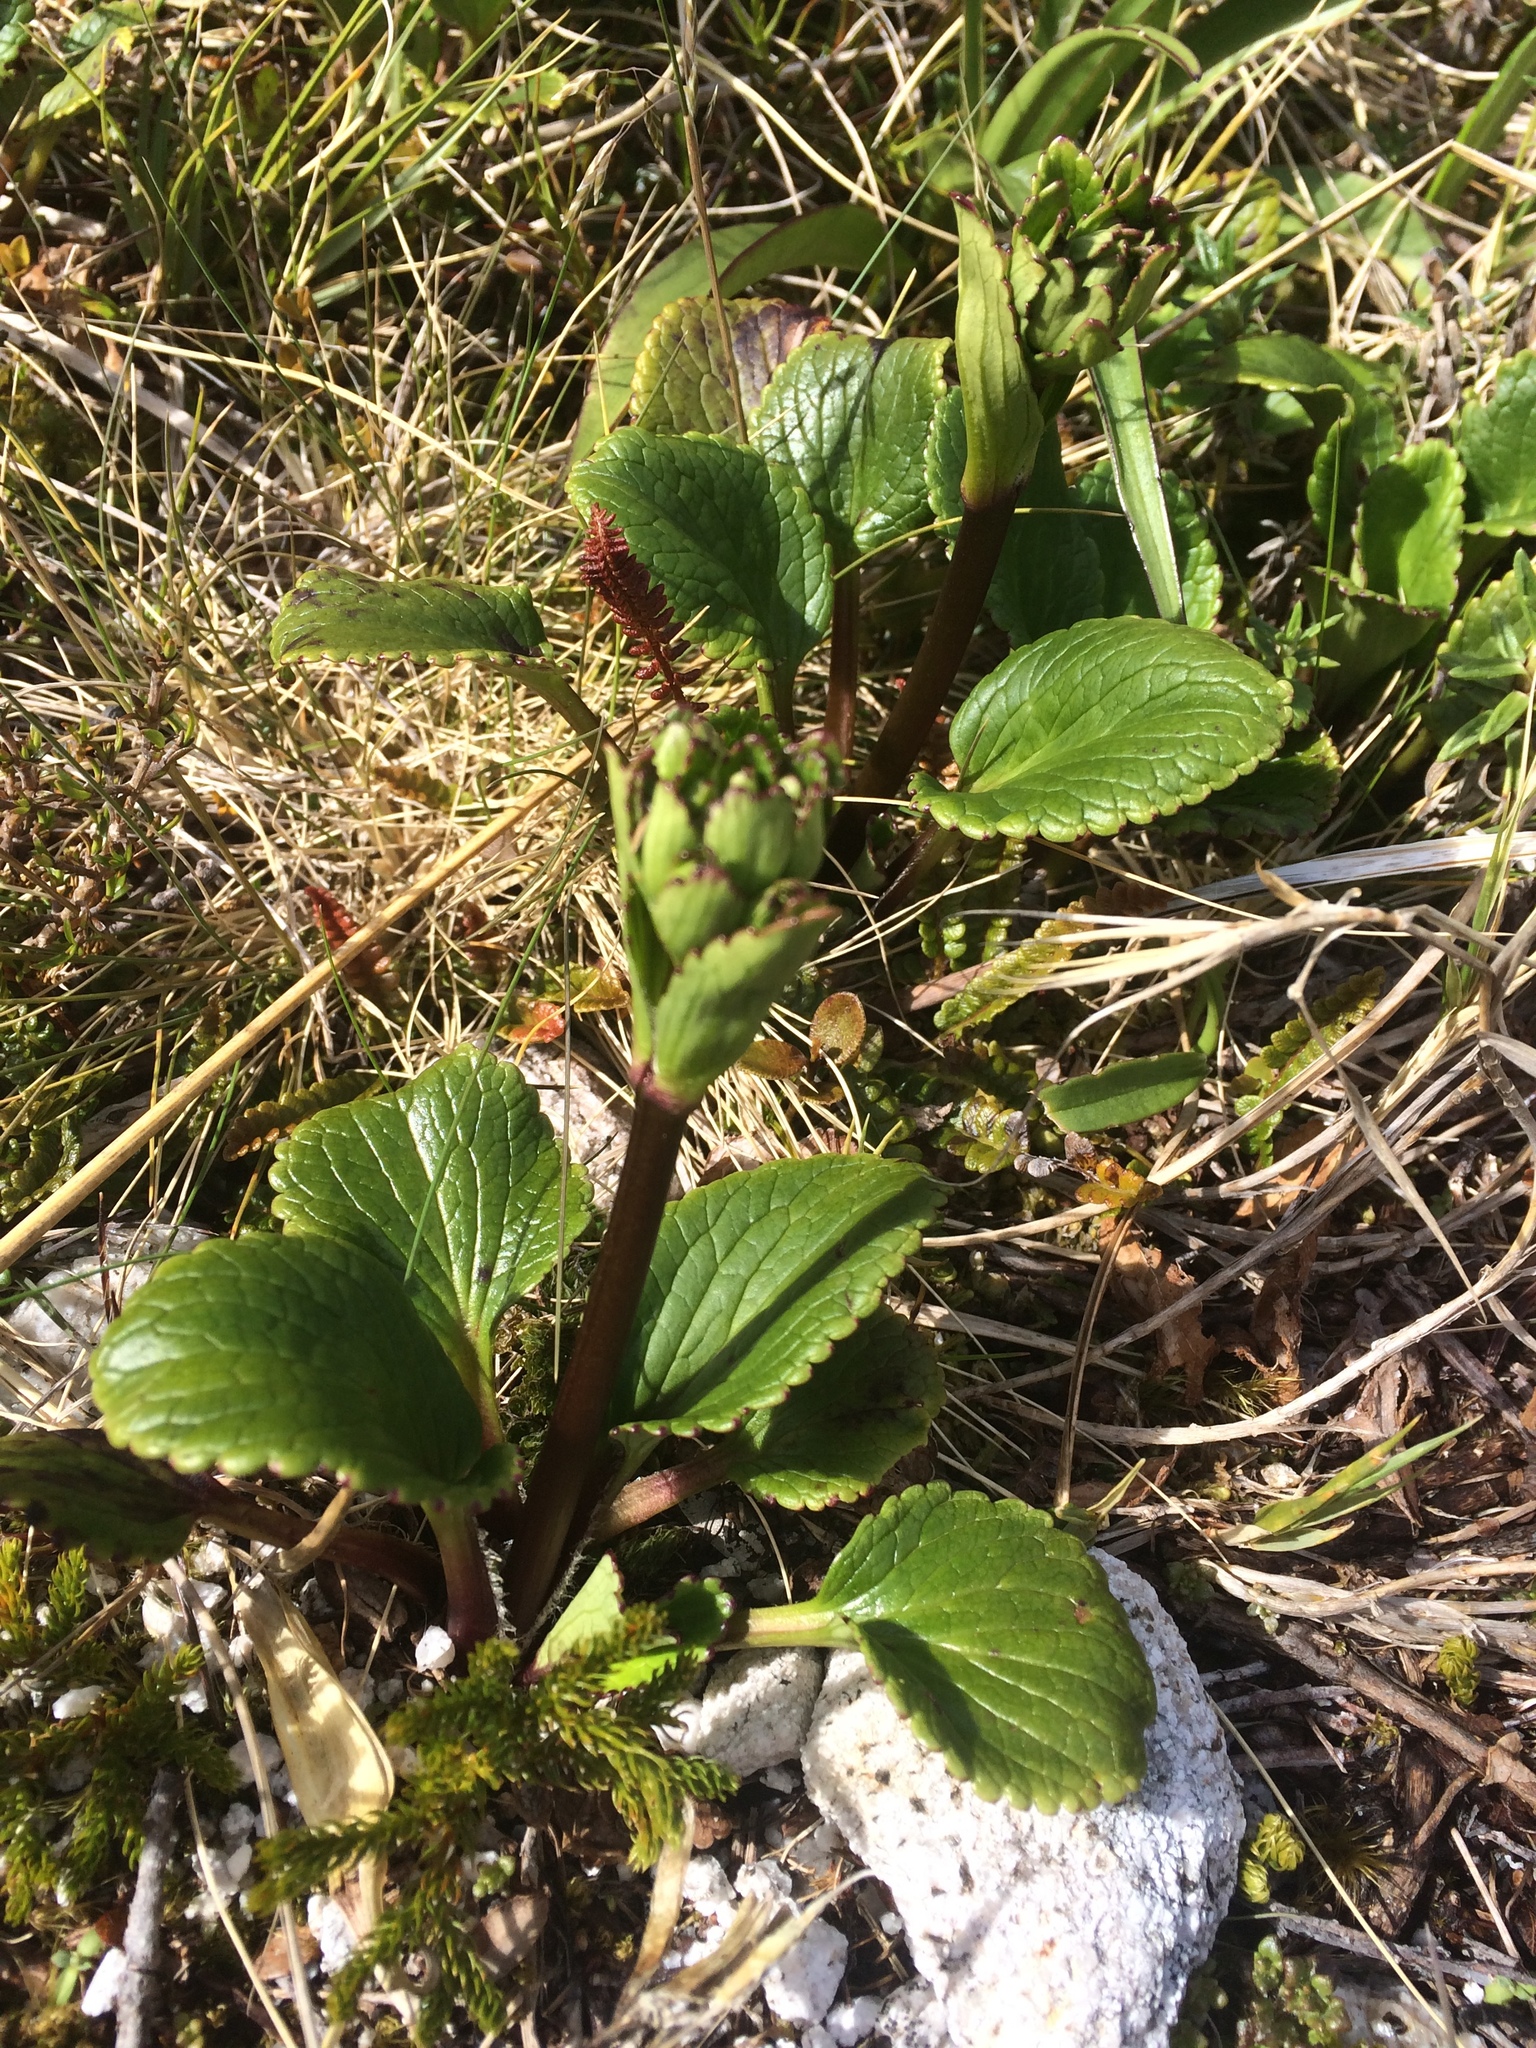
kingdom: Plantae
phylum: Tracheophyta
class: Magnoliopsida
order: Lamiales
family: Plantaginaceae
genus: Ourisia
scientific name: Ourisia macrocarpa
